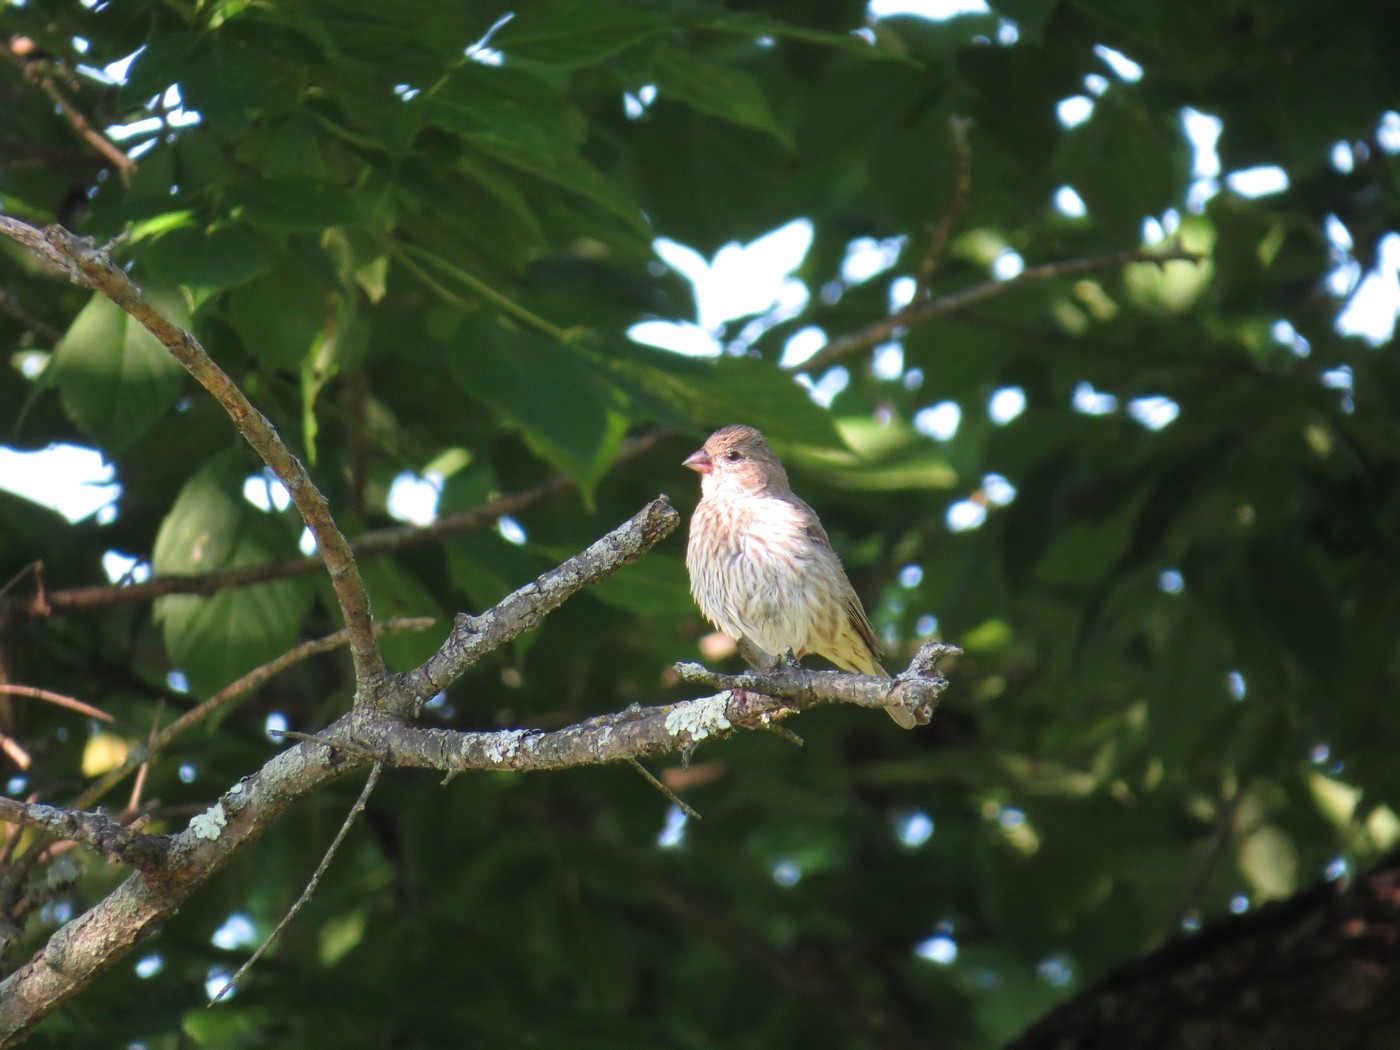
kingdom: Animalia
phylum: Chordata
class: Aves
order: Passeriformes
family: Fringillidae
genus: Haemorhous
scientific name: Haemorhous mexicanus
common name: House finch
